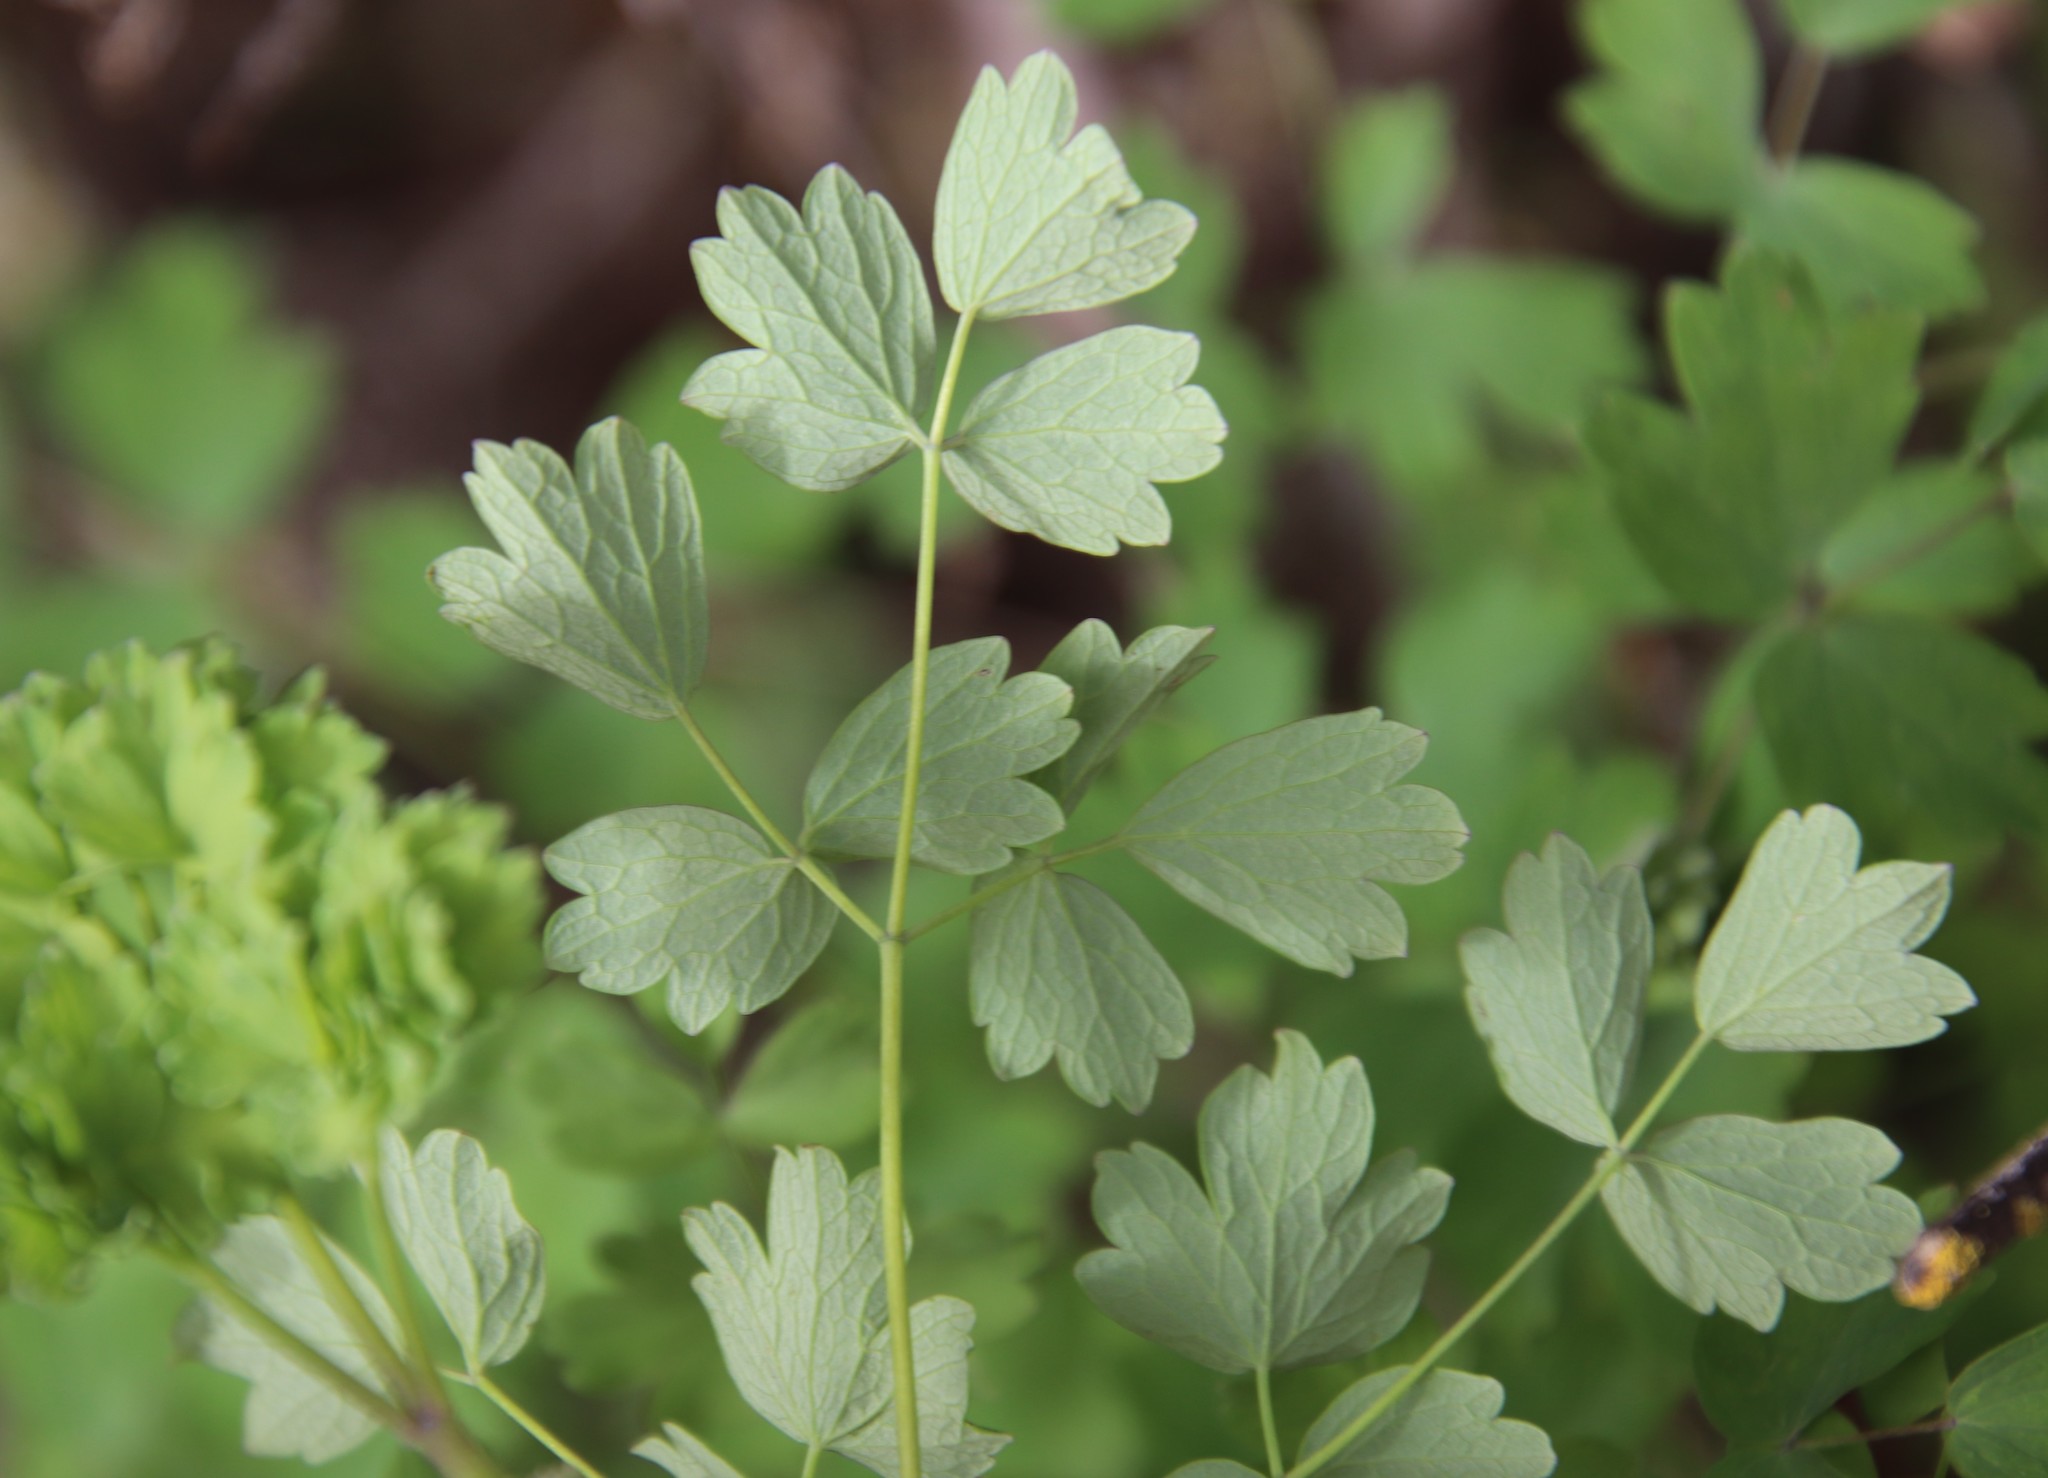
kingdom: Plantae
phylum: Tracheophyta
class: Magnoliopsida
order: Ranunculales
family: Ranunculaceae
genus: Thalictrum
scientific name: Thalictrum fendleri
